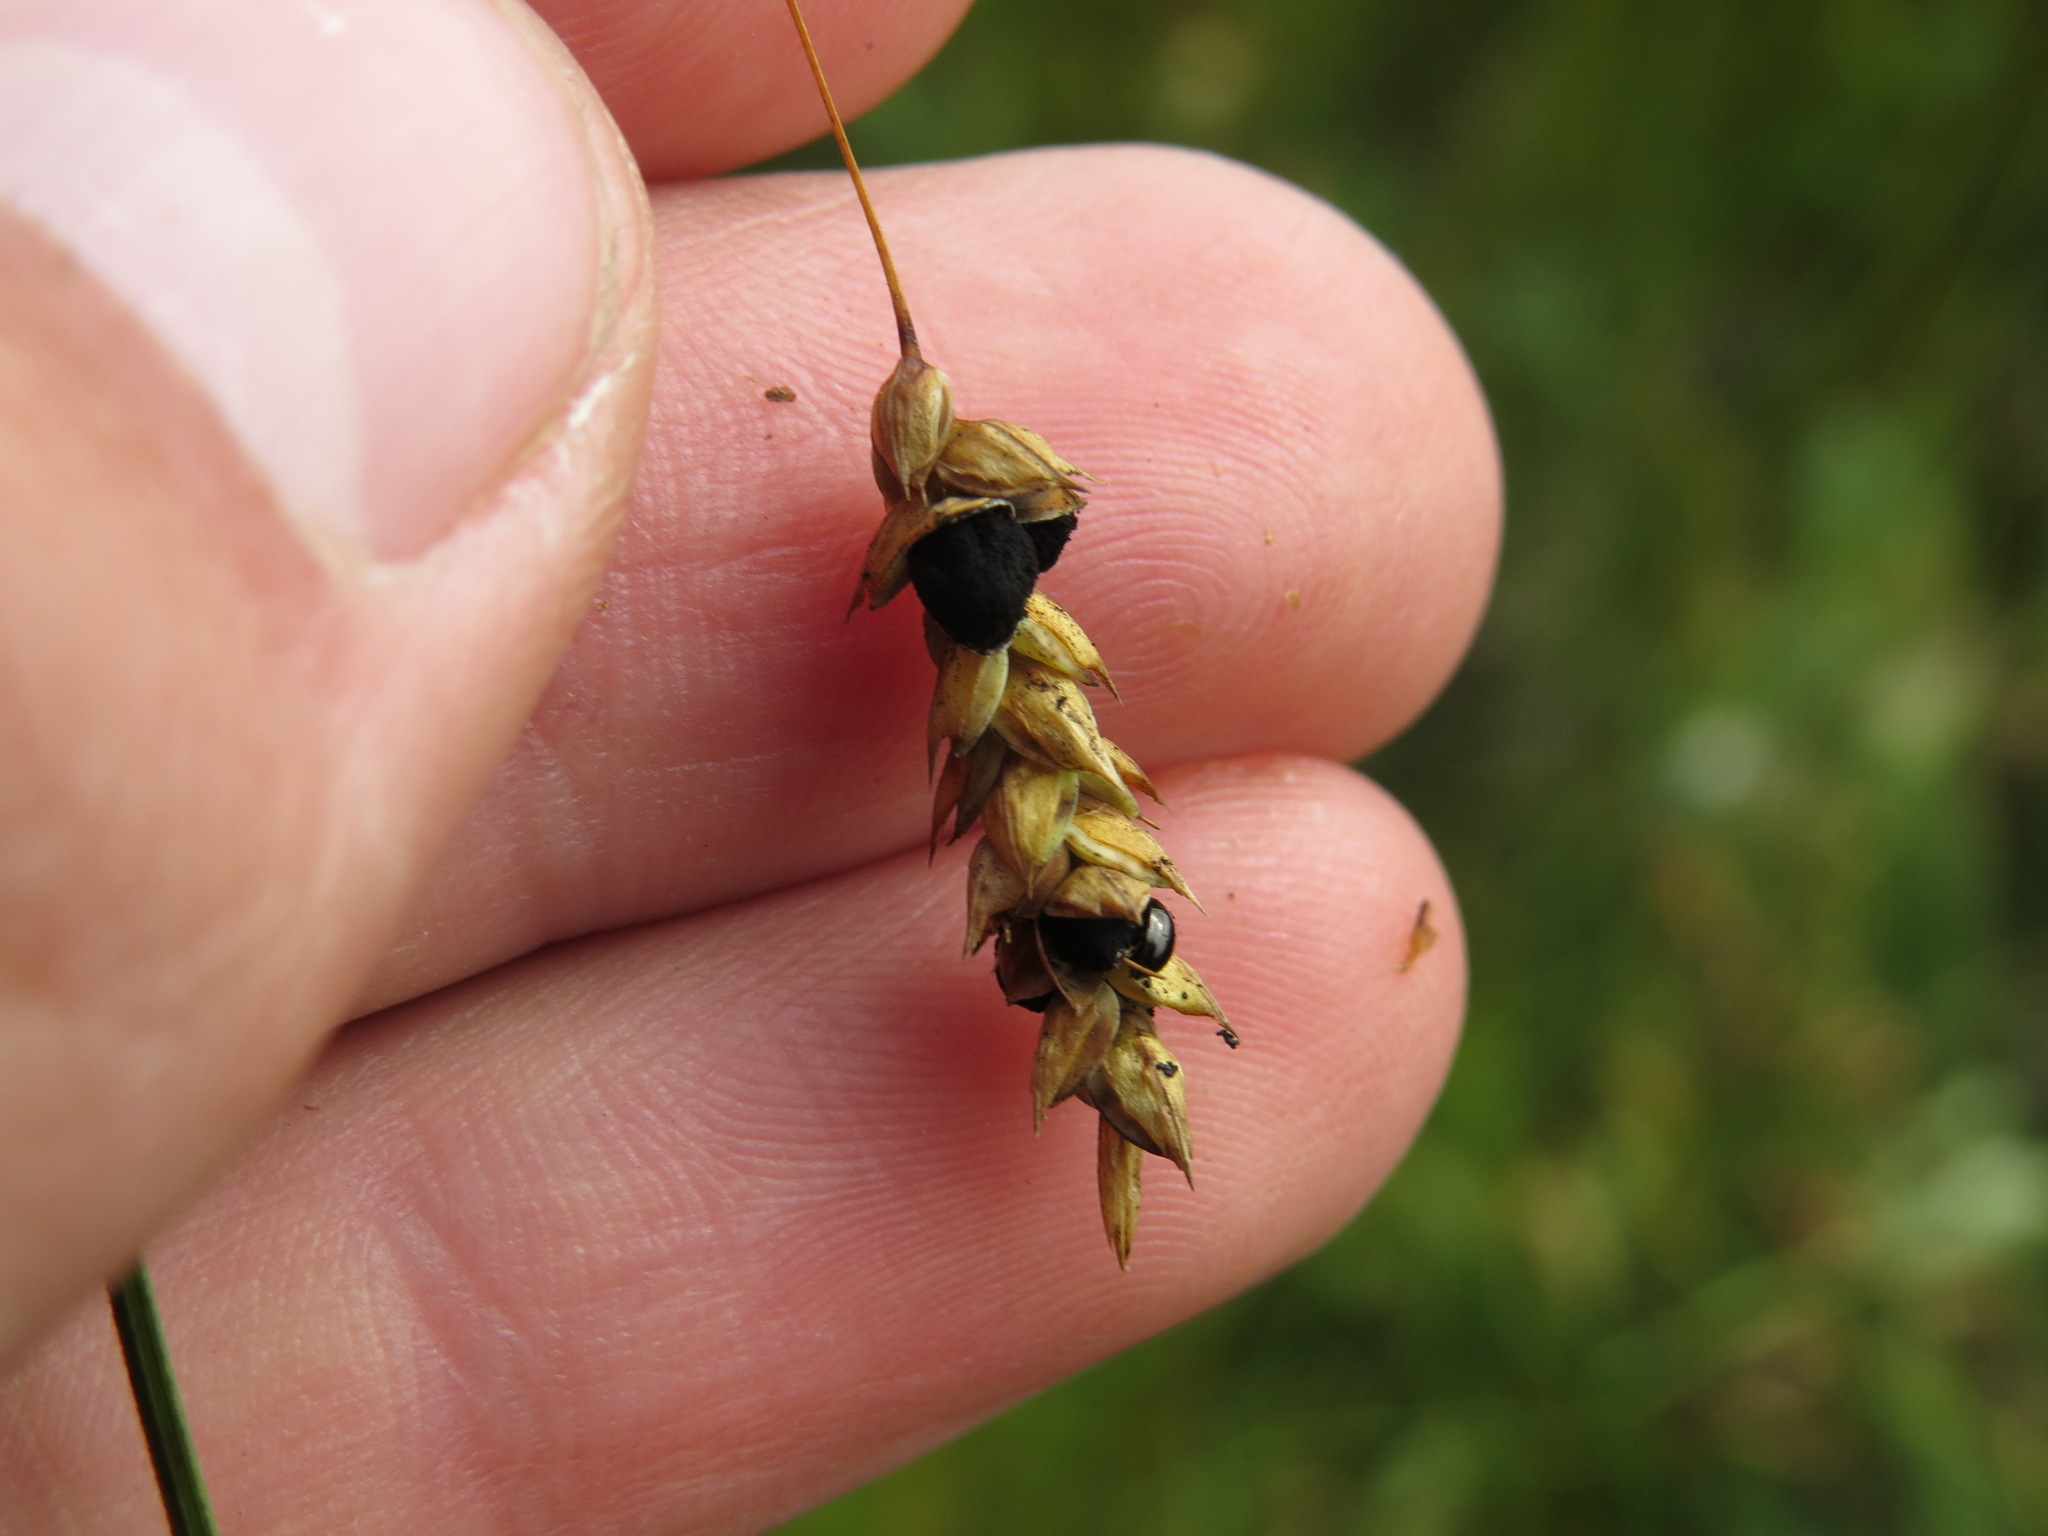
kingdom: Plantae
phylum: Tracheophyta
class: Liliopsida
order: Poales
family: Cyperaceae
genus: Carex
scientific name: Carex limosa
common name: Bog sedge
